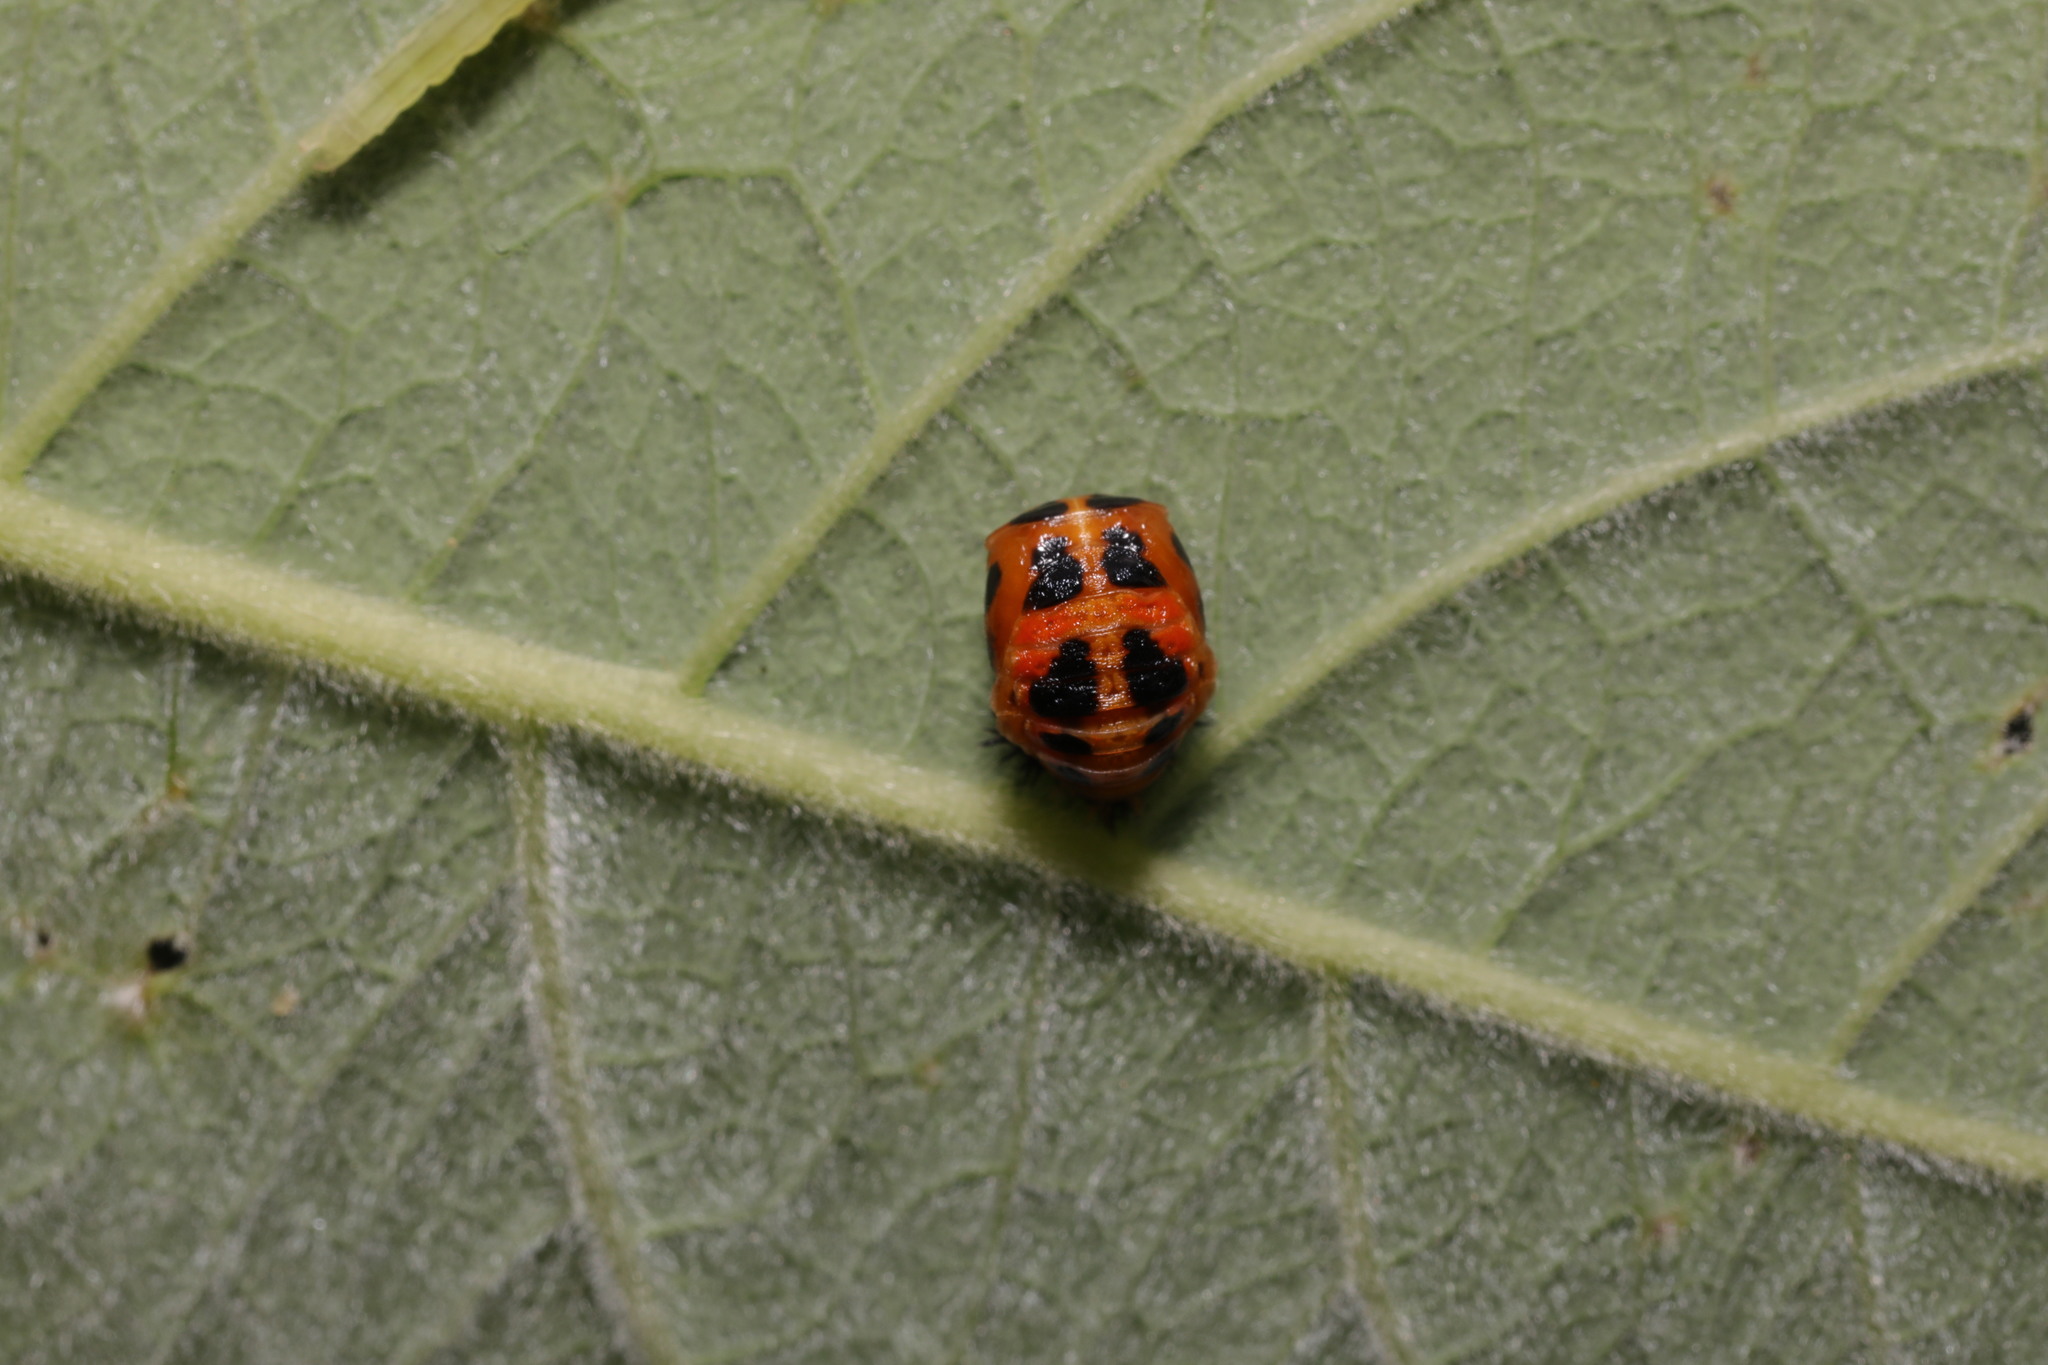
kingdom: Animalia
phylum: Arthropoda
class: Insecta
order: Coleoptera
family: Coccinellidae
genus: Harmonia
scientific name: Harmonia axyridis
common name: Harlequin ladybird
